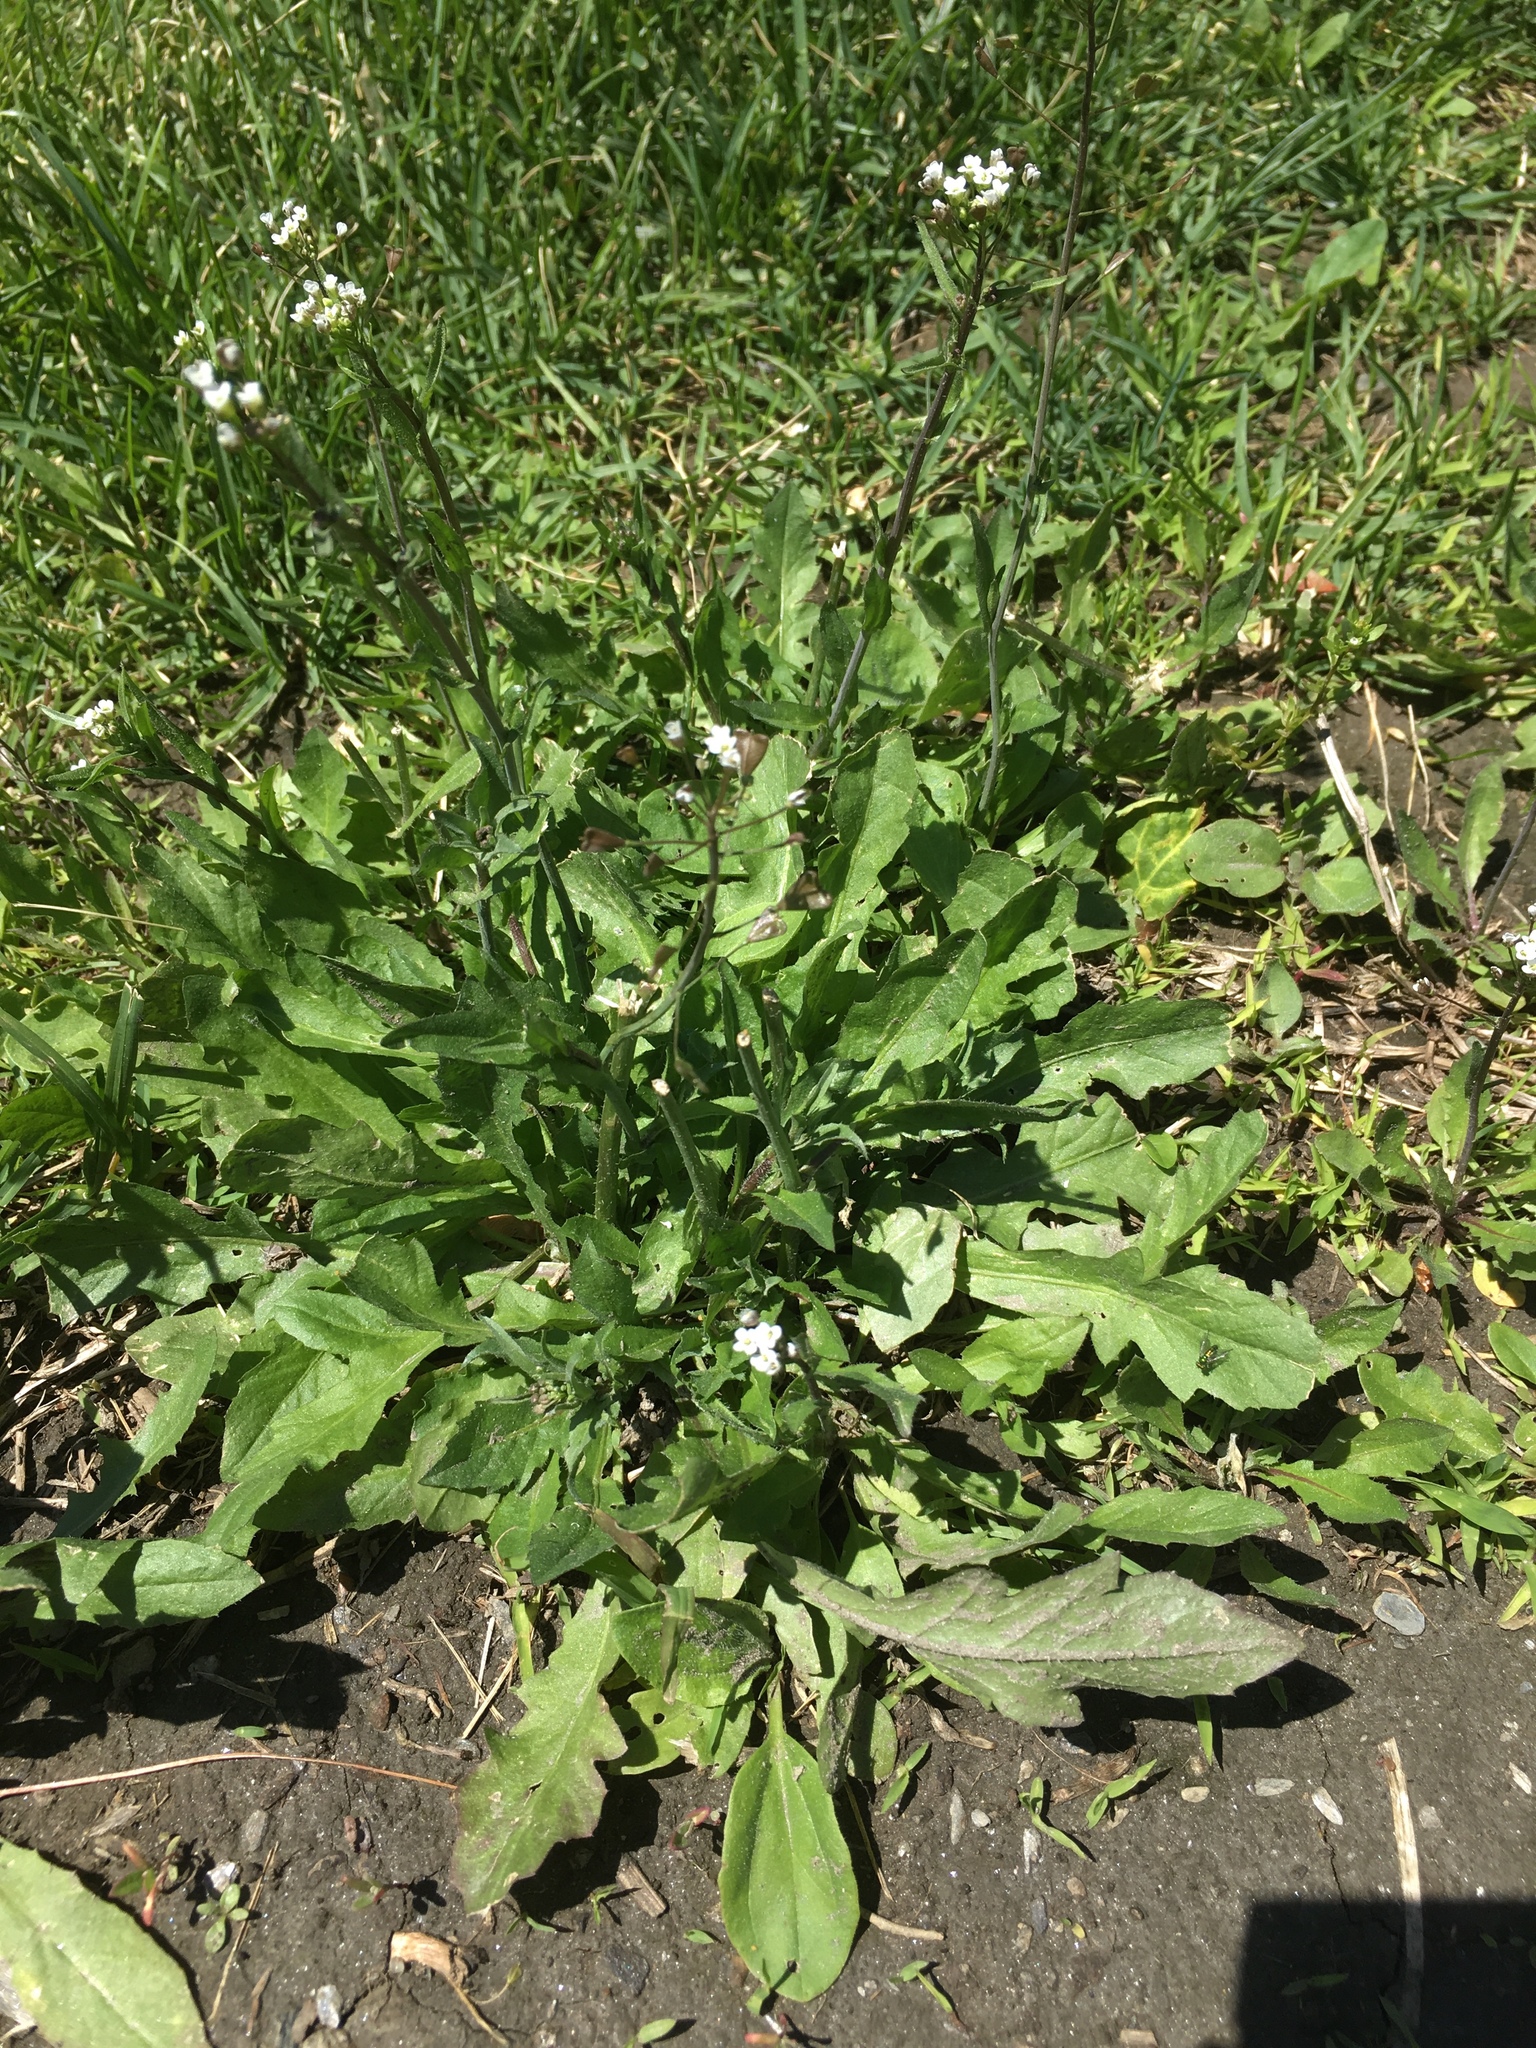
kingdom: Plantae
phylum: Tracheophyta
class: Magnoliopsida
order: Brassicales
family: Brassicaceae
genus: Capsella
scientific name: Capsella bursa-pastoris
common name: Shepherd's purse
